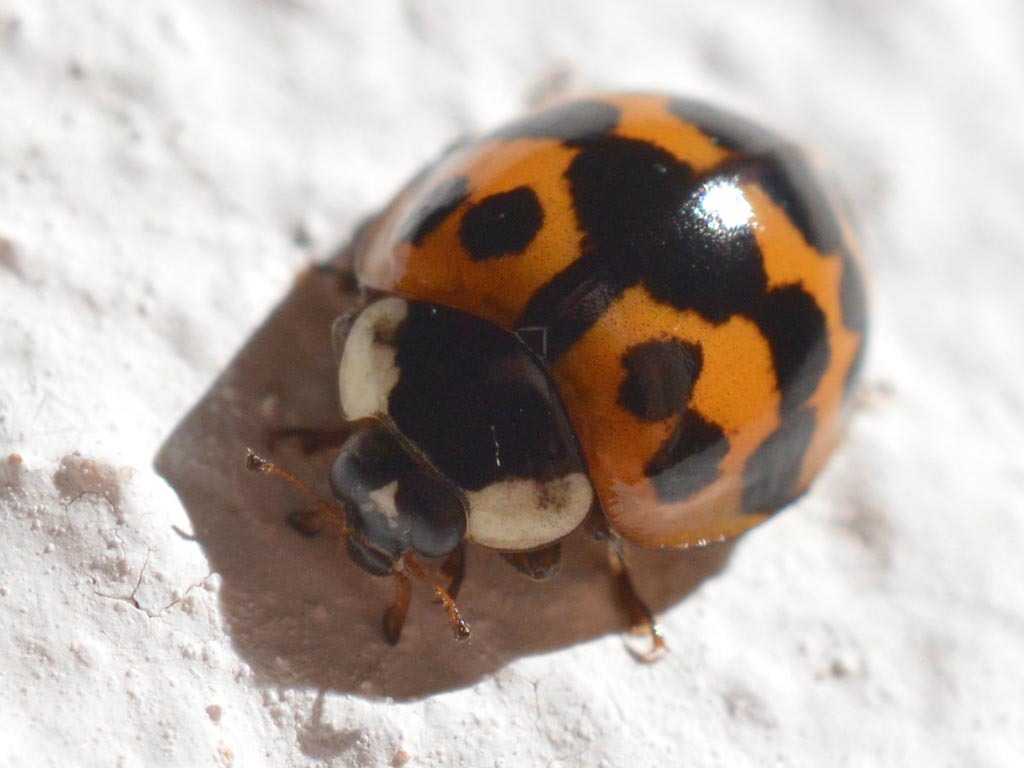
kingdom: Animalia
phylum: Arthropoda
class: Insecta
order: Coleoptera
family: Coccinellidae
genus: Harmonia
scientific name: Harmonia axyridis
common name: Harlequin ladybird
